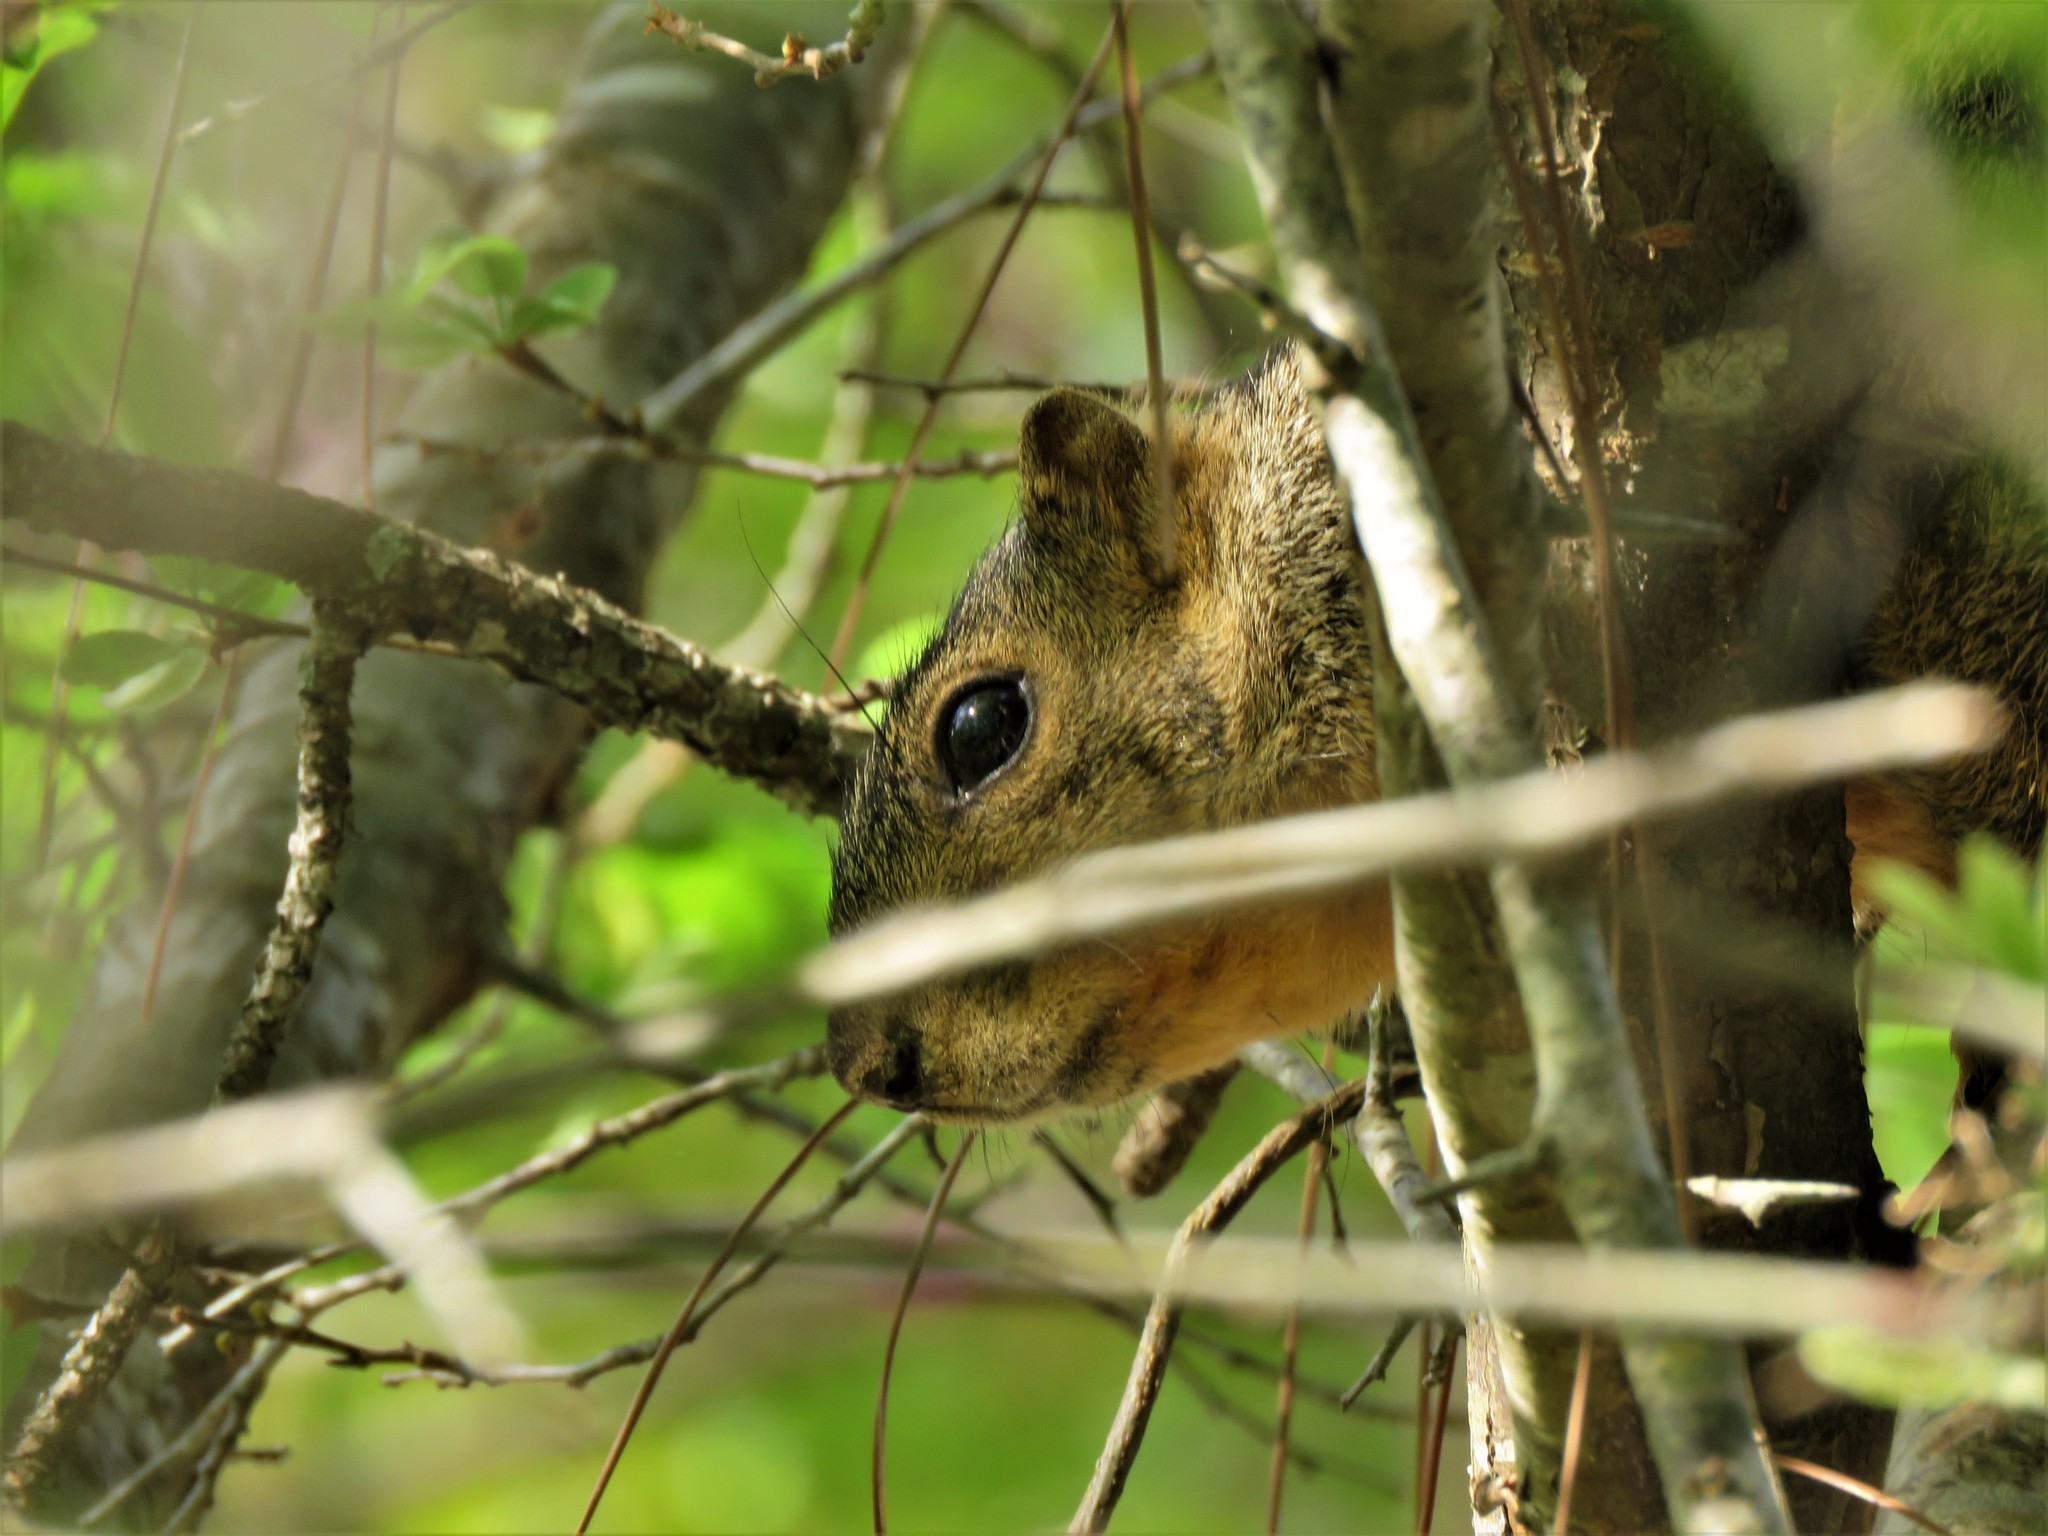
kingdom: Animalia
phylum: Chordata
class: Mammalia
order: Rodentia
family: Sciuridae
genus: Sciurus
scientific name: Sciurus niger
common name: Fox squirrel
